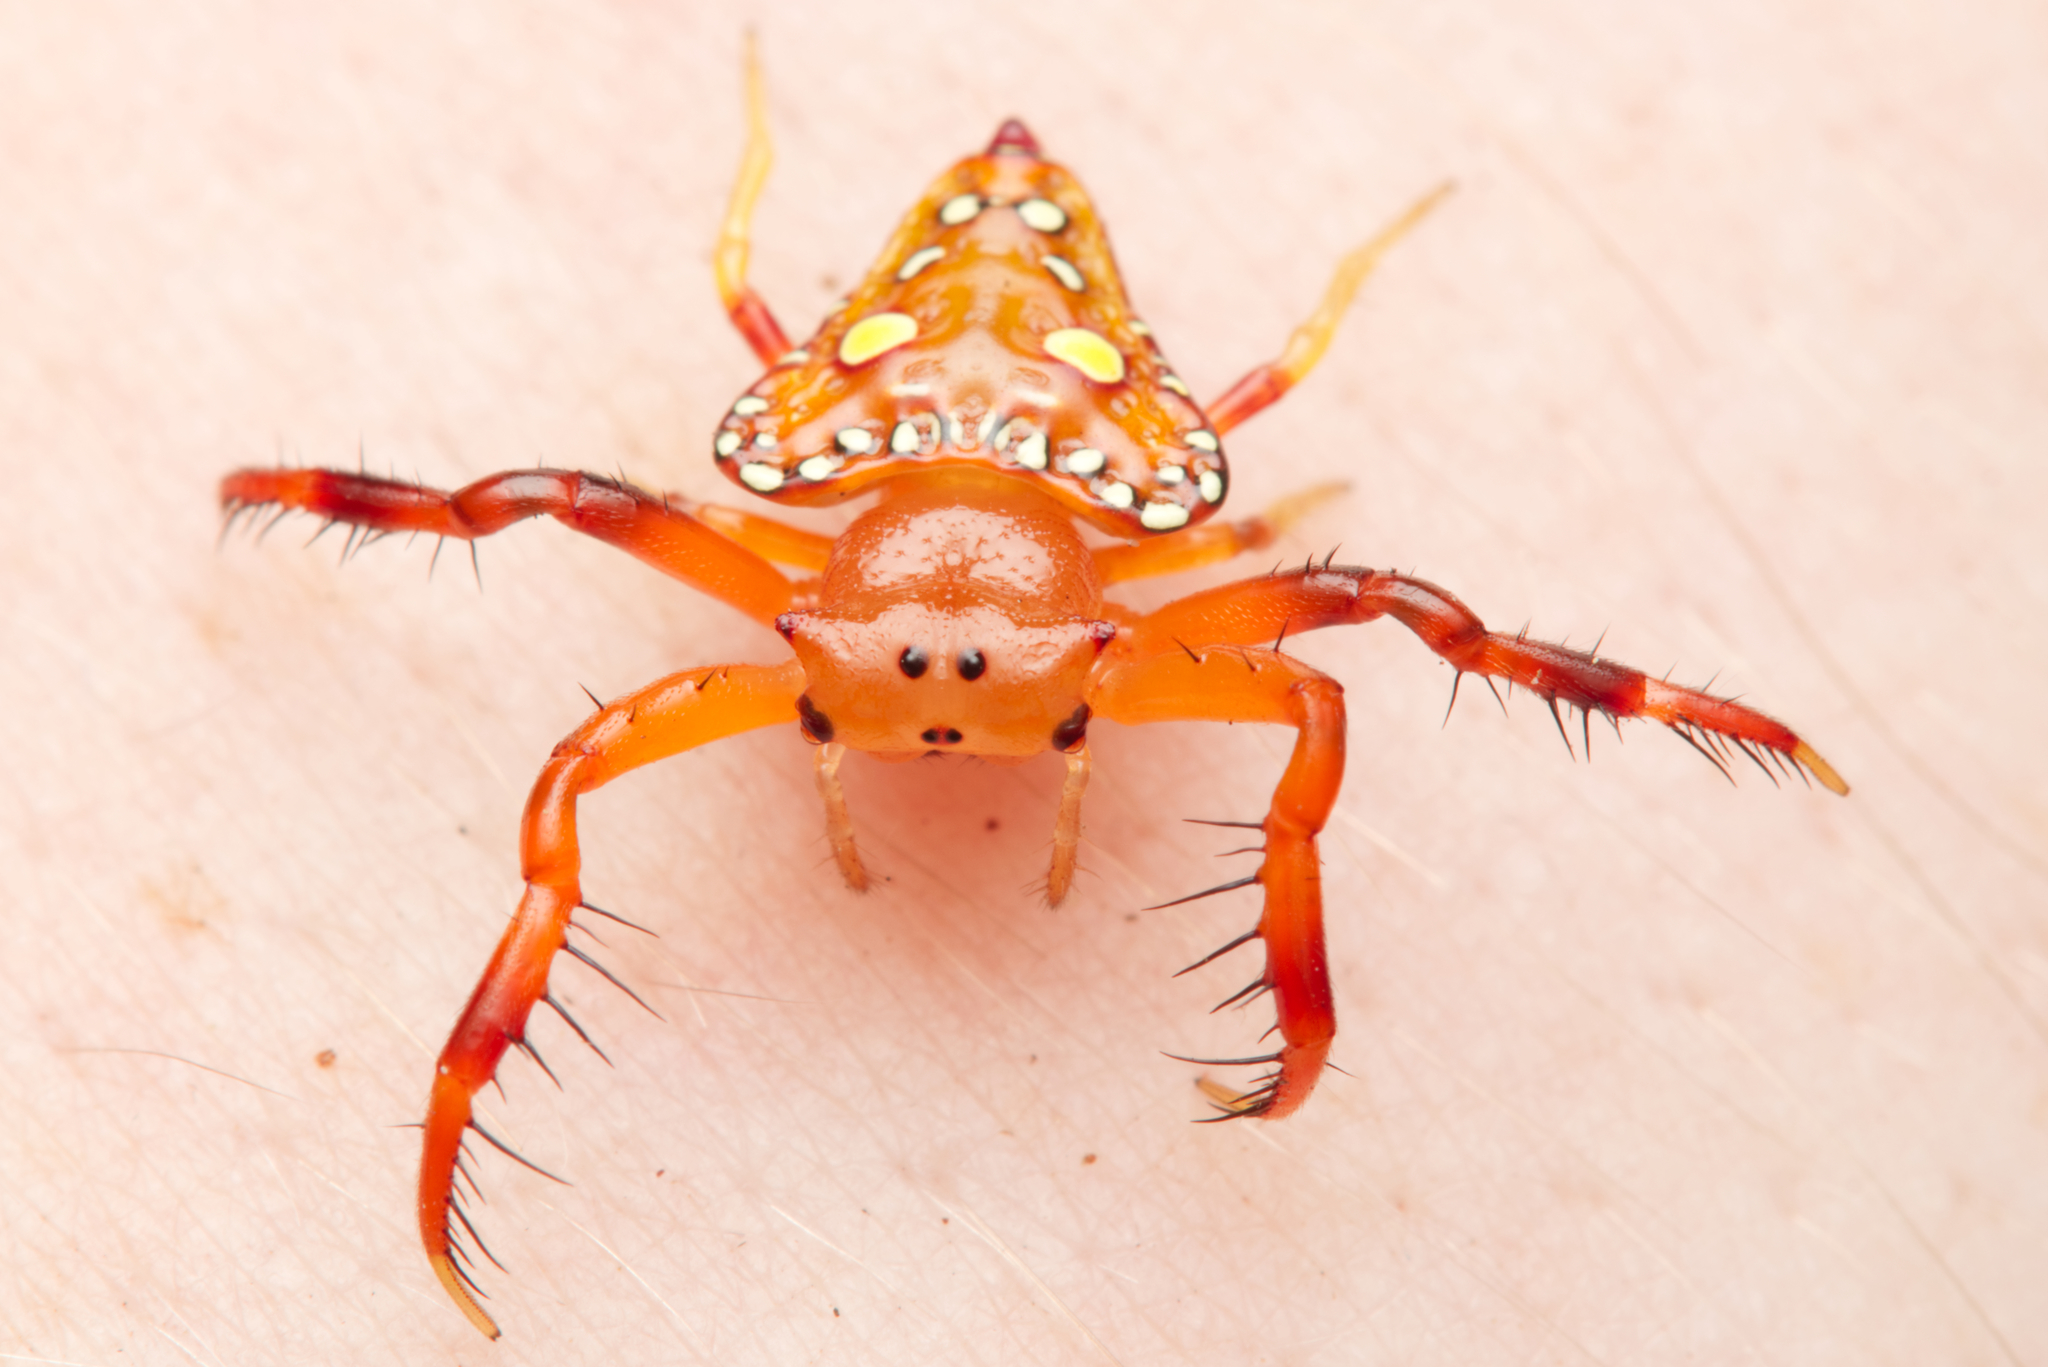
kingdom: Animalia
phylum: Arthropoda
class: Arachnida
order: Araneae
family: Arkyidae
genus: Arkys
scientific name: Arkys lancearius
